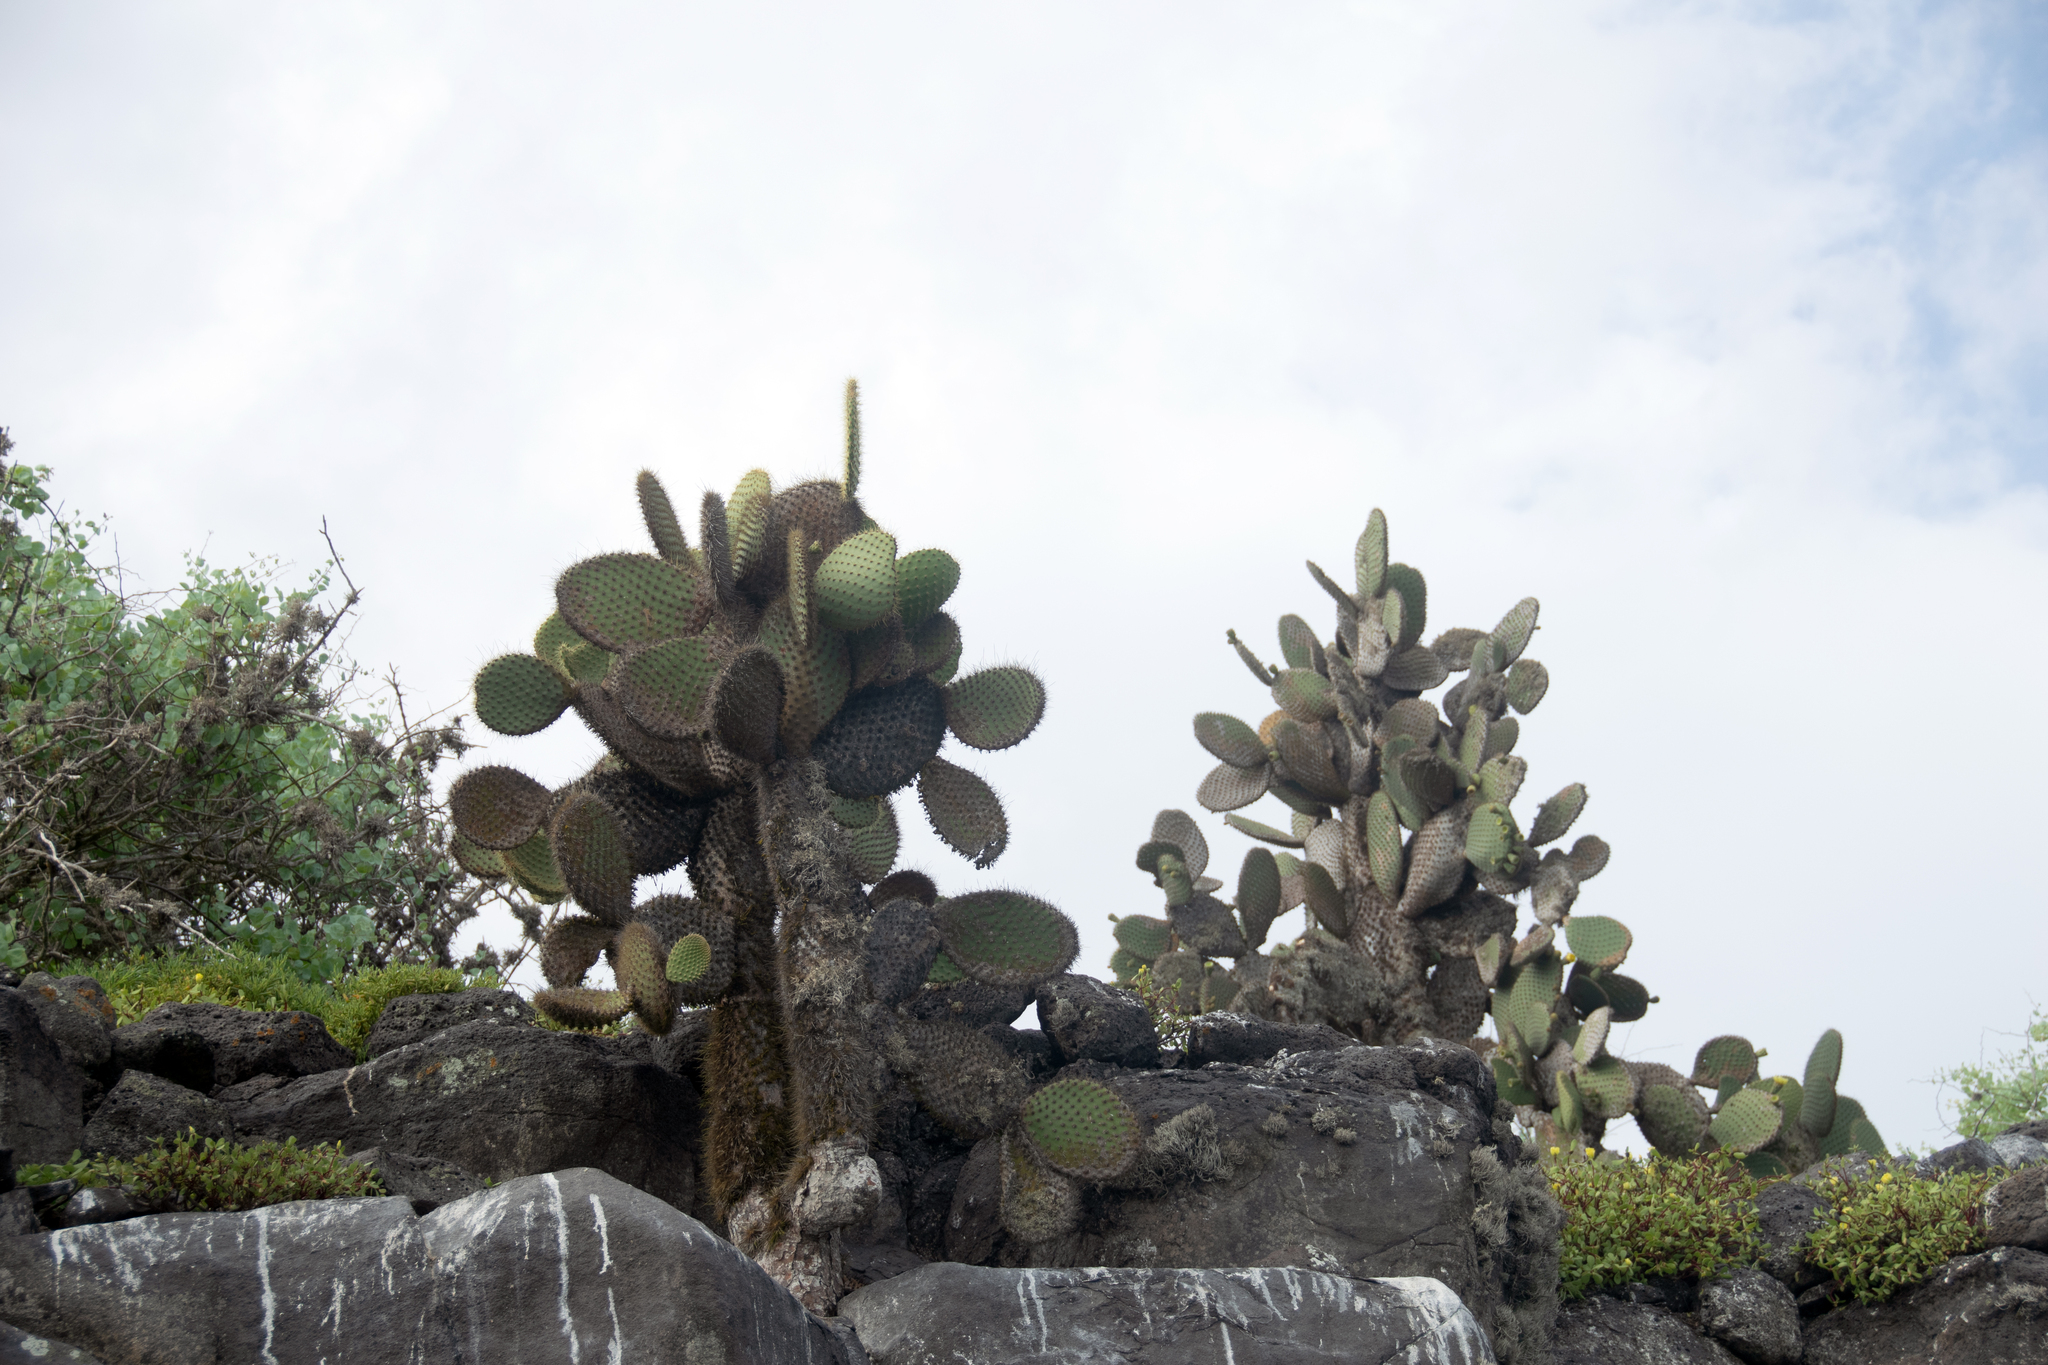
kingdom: Plantae
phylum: Tracheophyta
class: Magnoliopsida
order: Caryophyllales
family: Cactaceae
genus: Opuntia
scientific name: Opuntia galapageia
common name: Galápagos prickly pear
